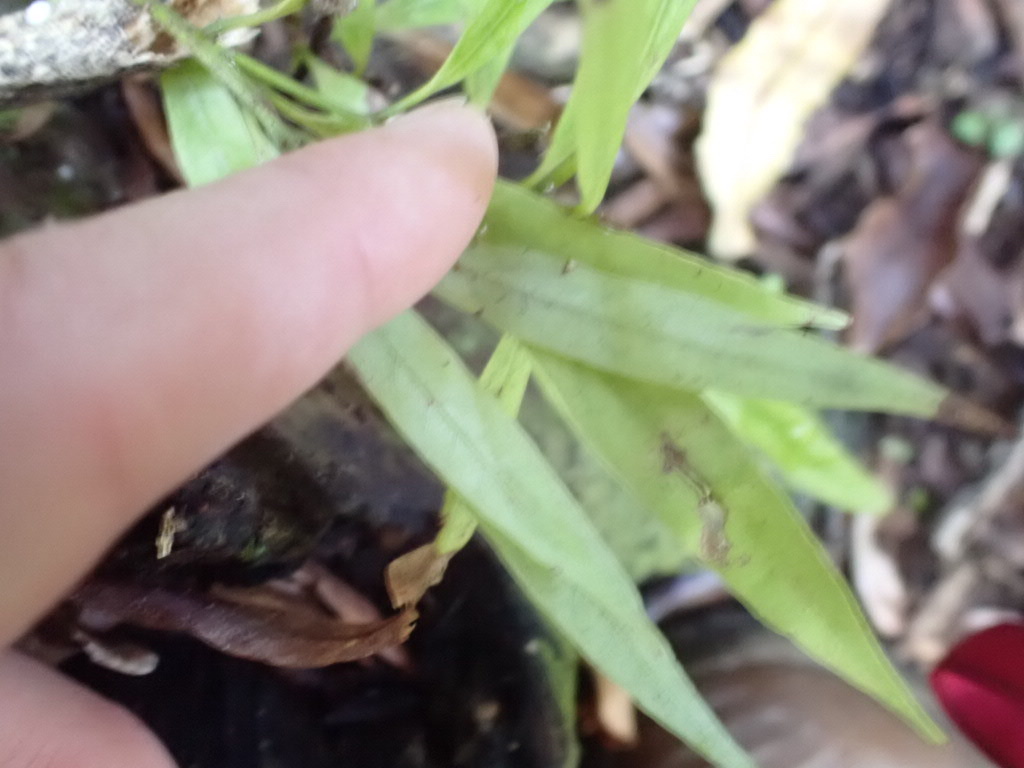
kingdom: Plantae
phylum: Tracheophyta
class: Magnoliopsida
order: Laurales
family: Lauraceae
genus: Beilschmiedia
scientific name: Beilschmiedia tawa
